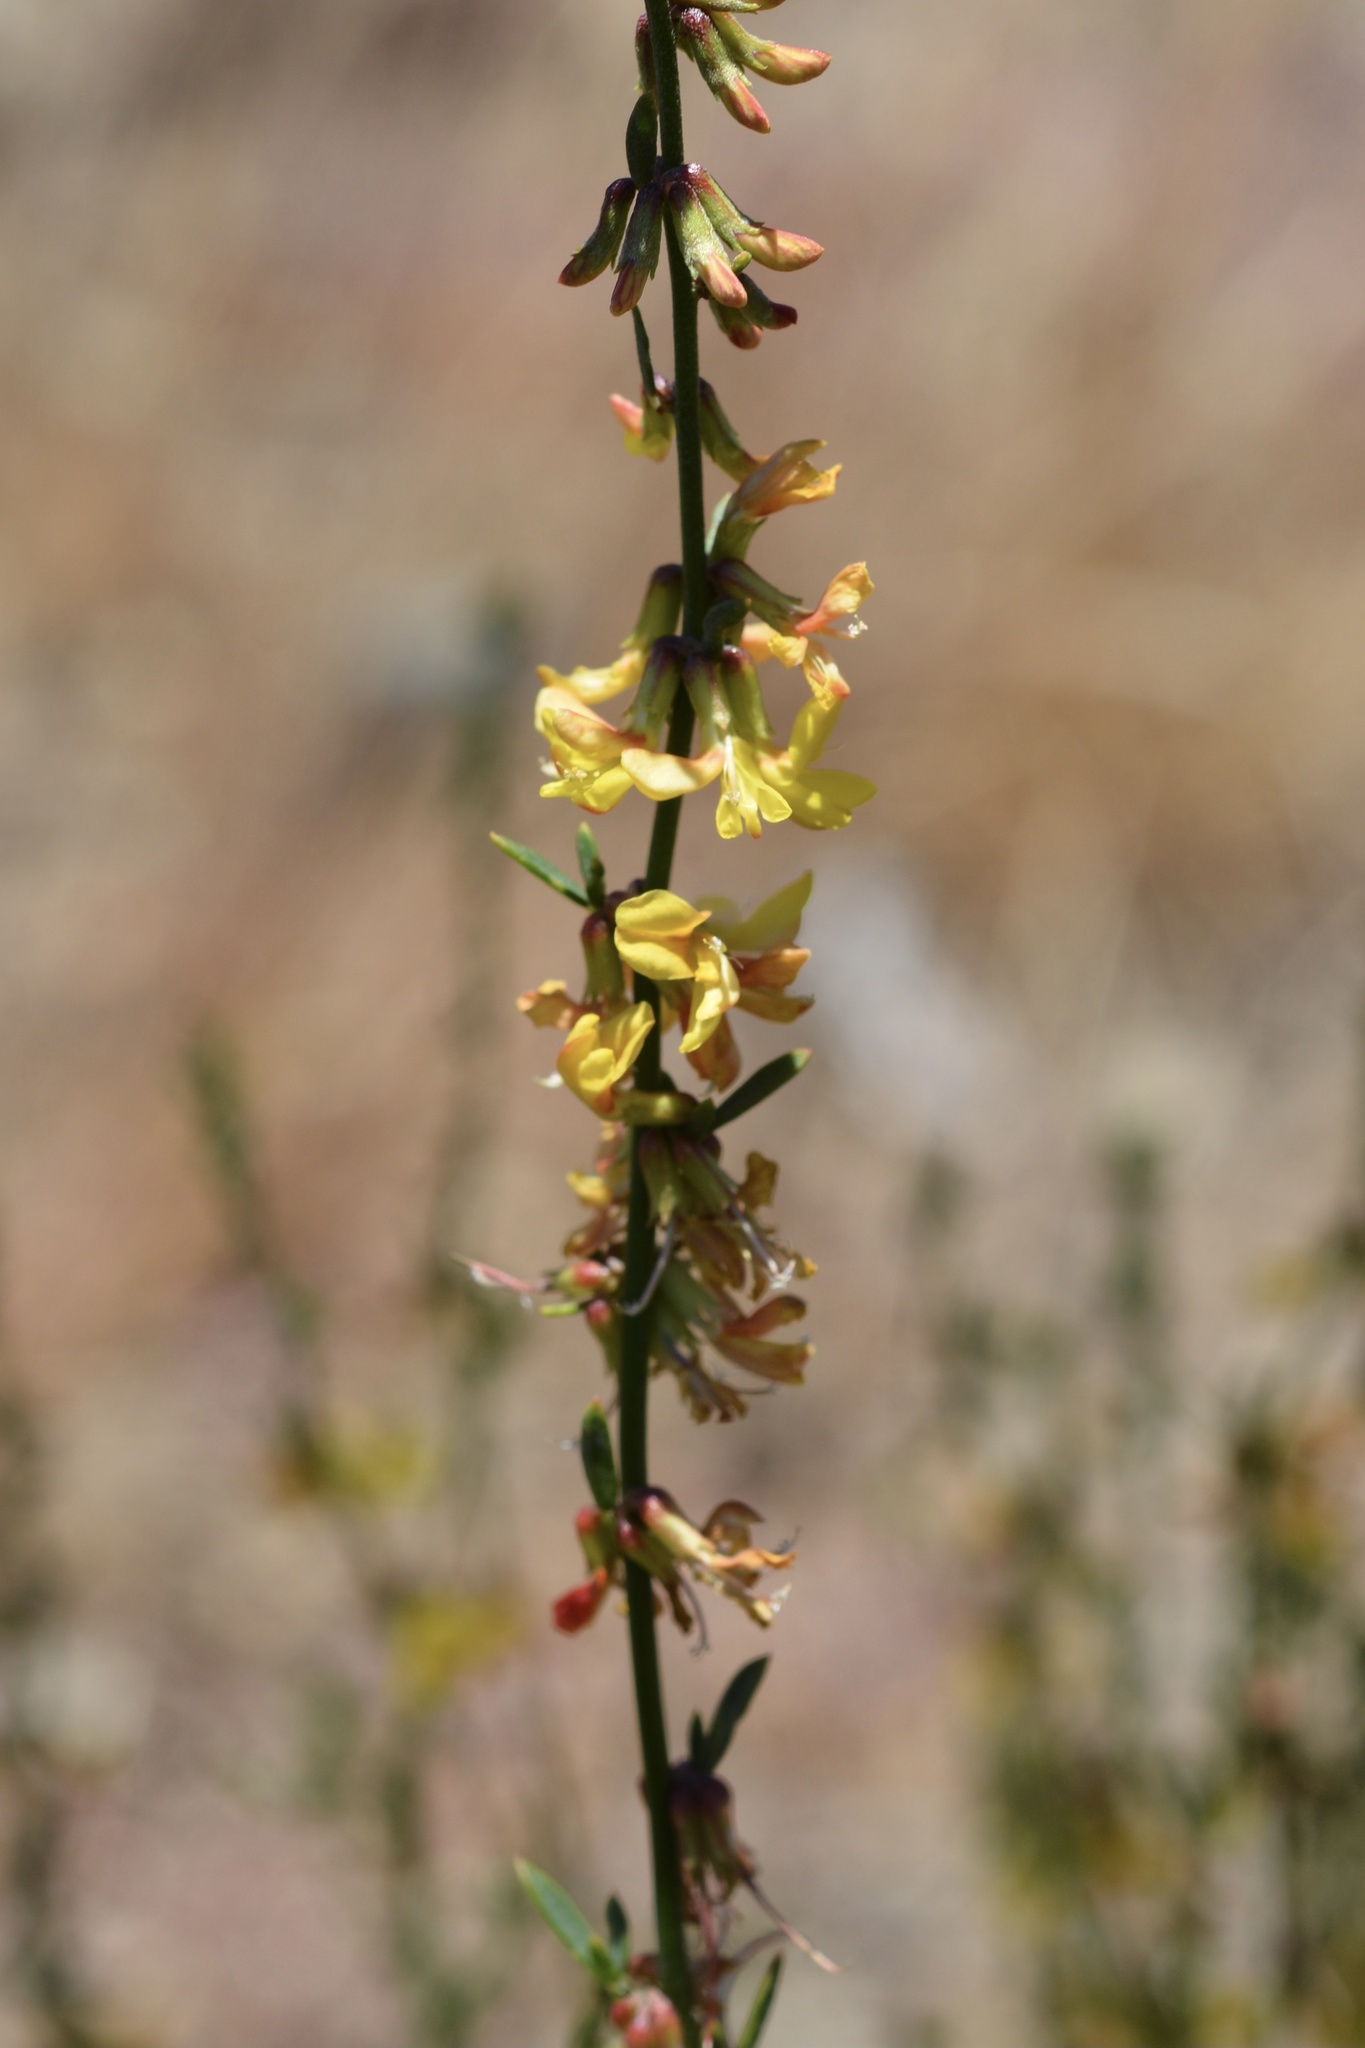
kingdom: Plantae
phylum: Tracheophyta
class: Magnoliopsida
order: Fabales
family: Fabaceae
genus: Acmispon
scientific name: Acmispon glaber
